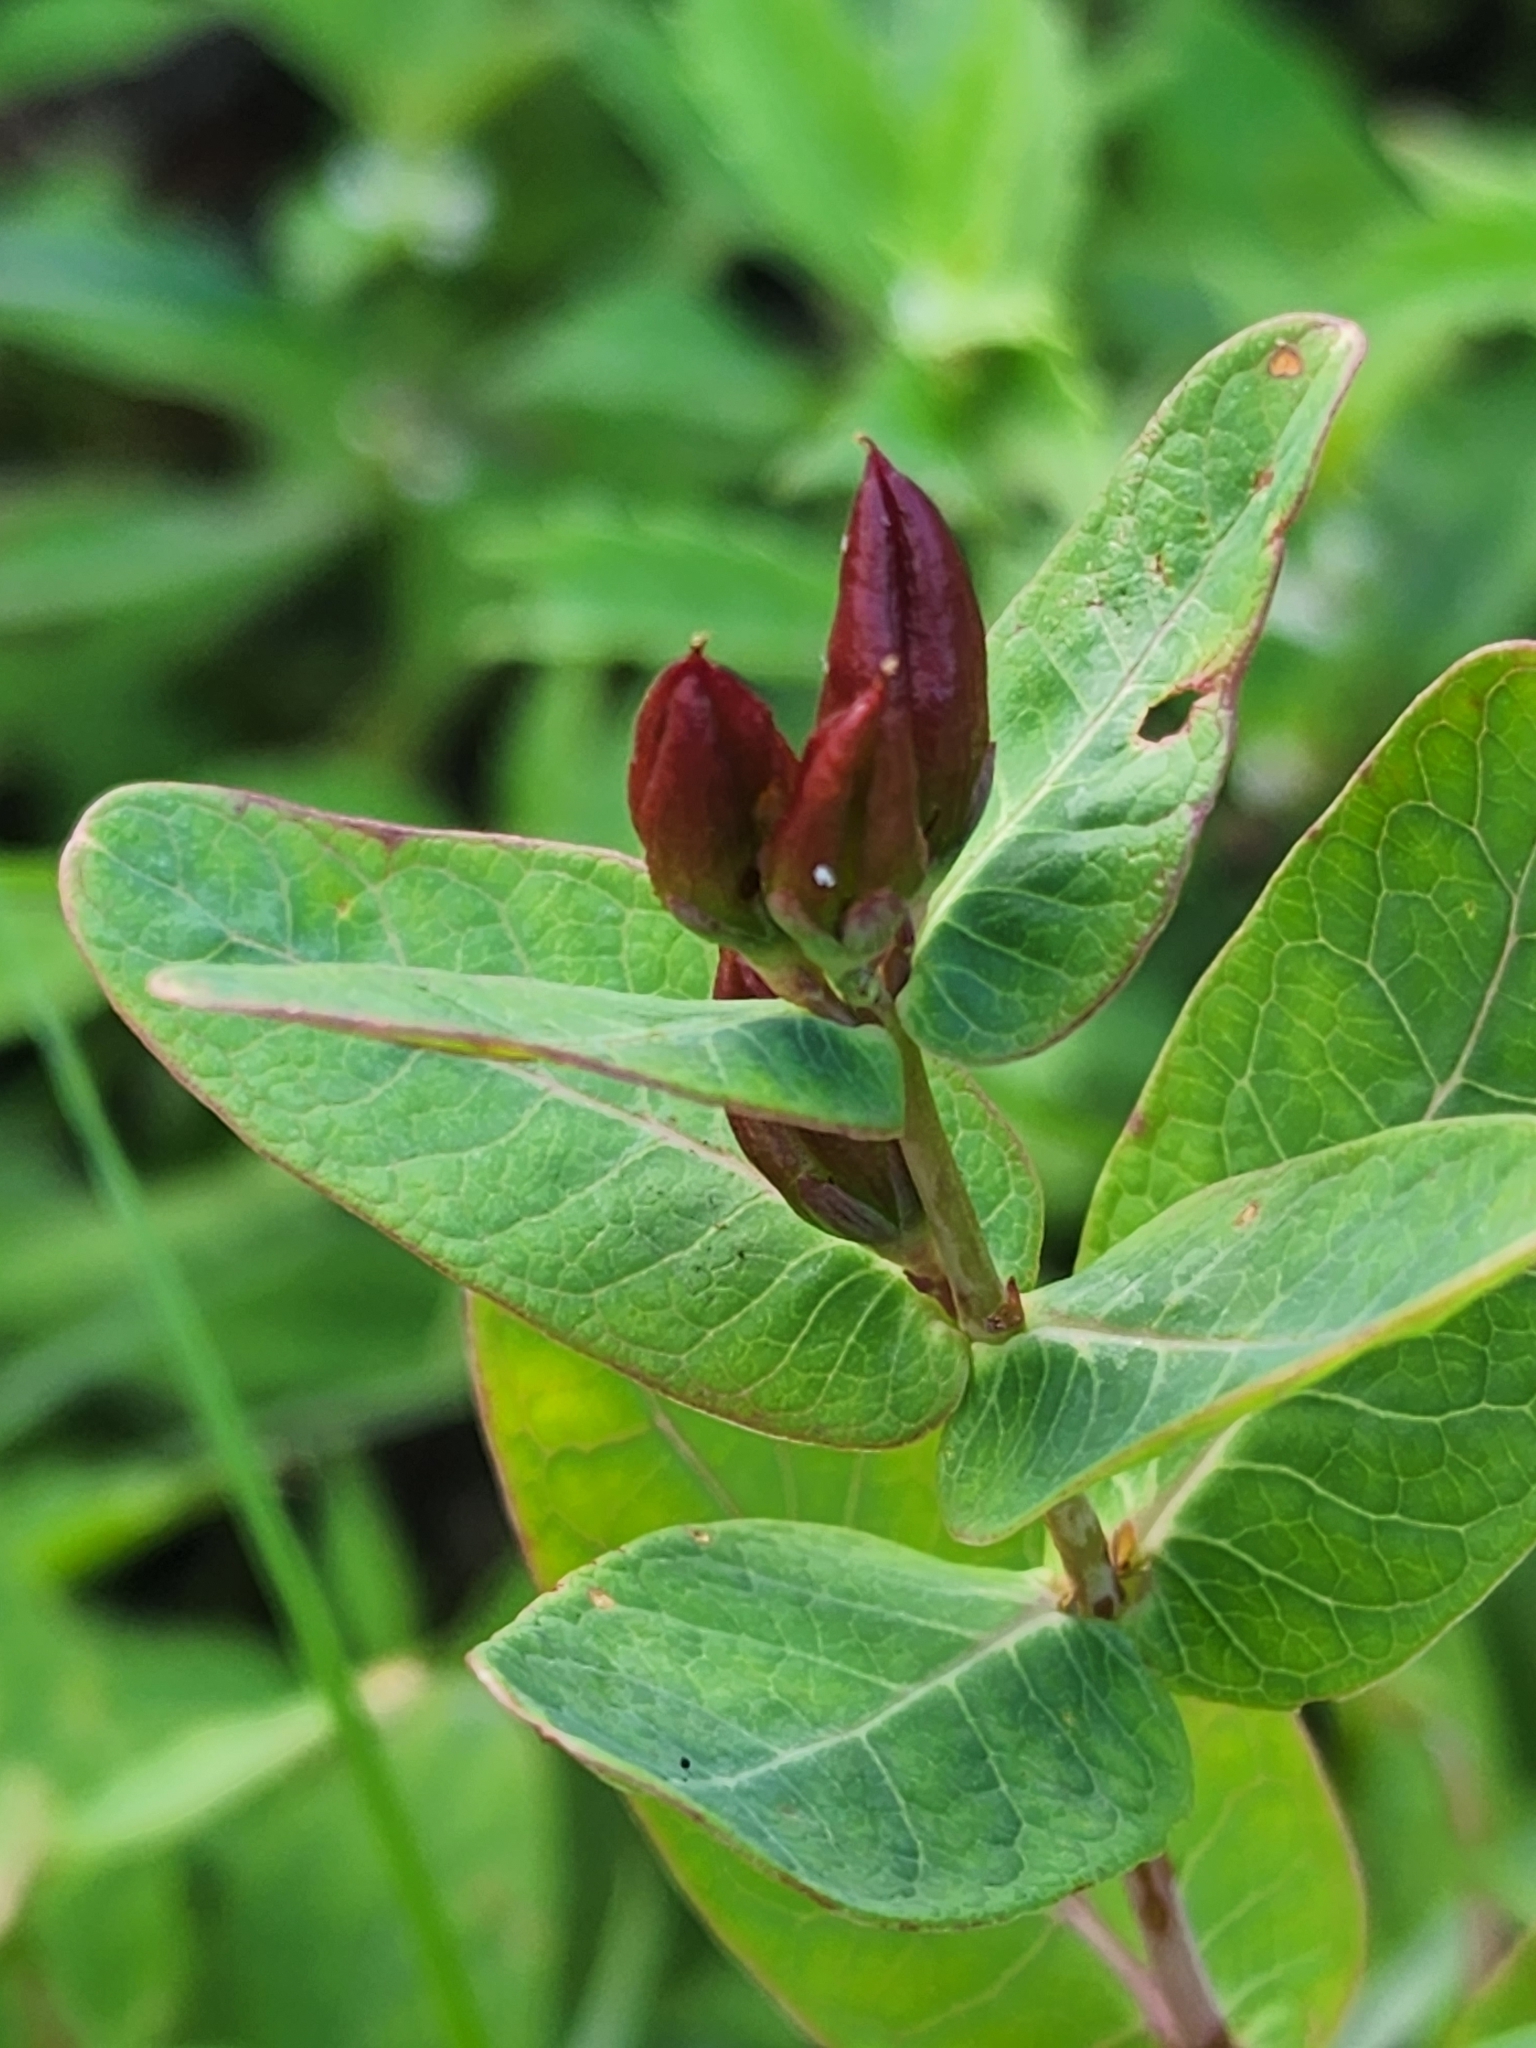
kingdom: Plantae
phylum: Tracheophyta
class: Magnoliopsida
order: Malpighiales
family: Hypericaceae
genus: Triadenum
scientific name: Triadenum fraseri
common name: Fraser's marsh st. johnswort
